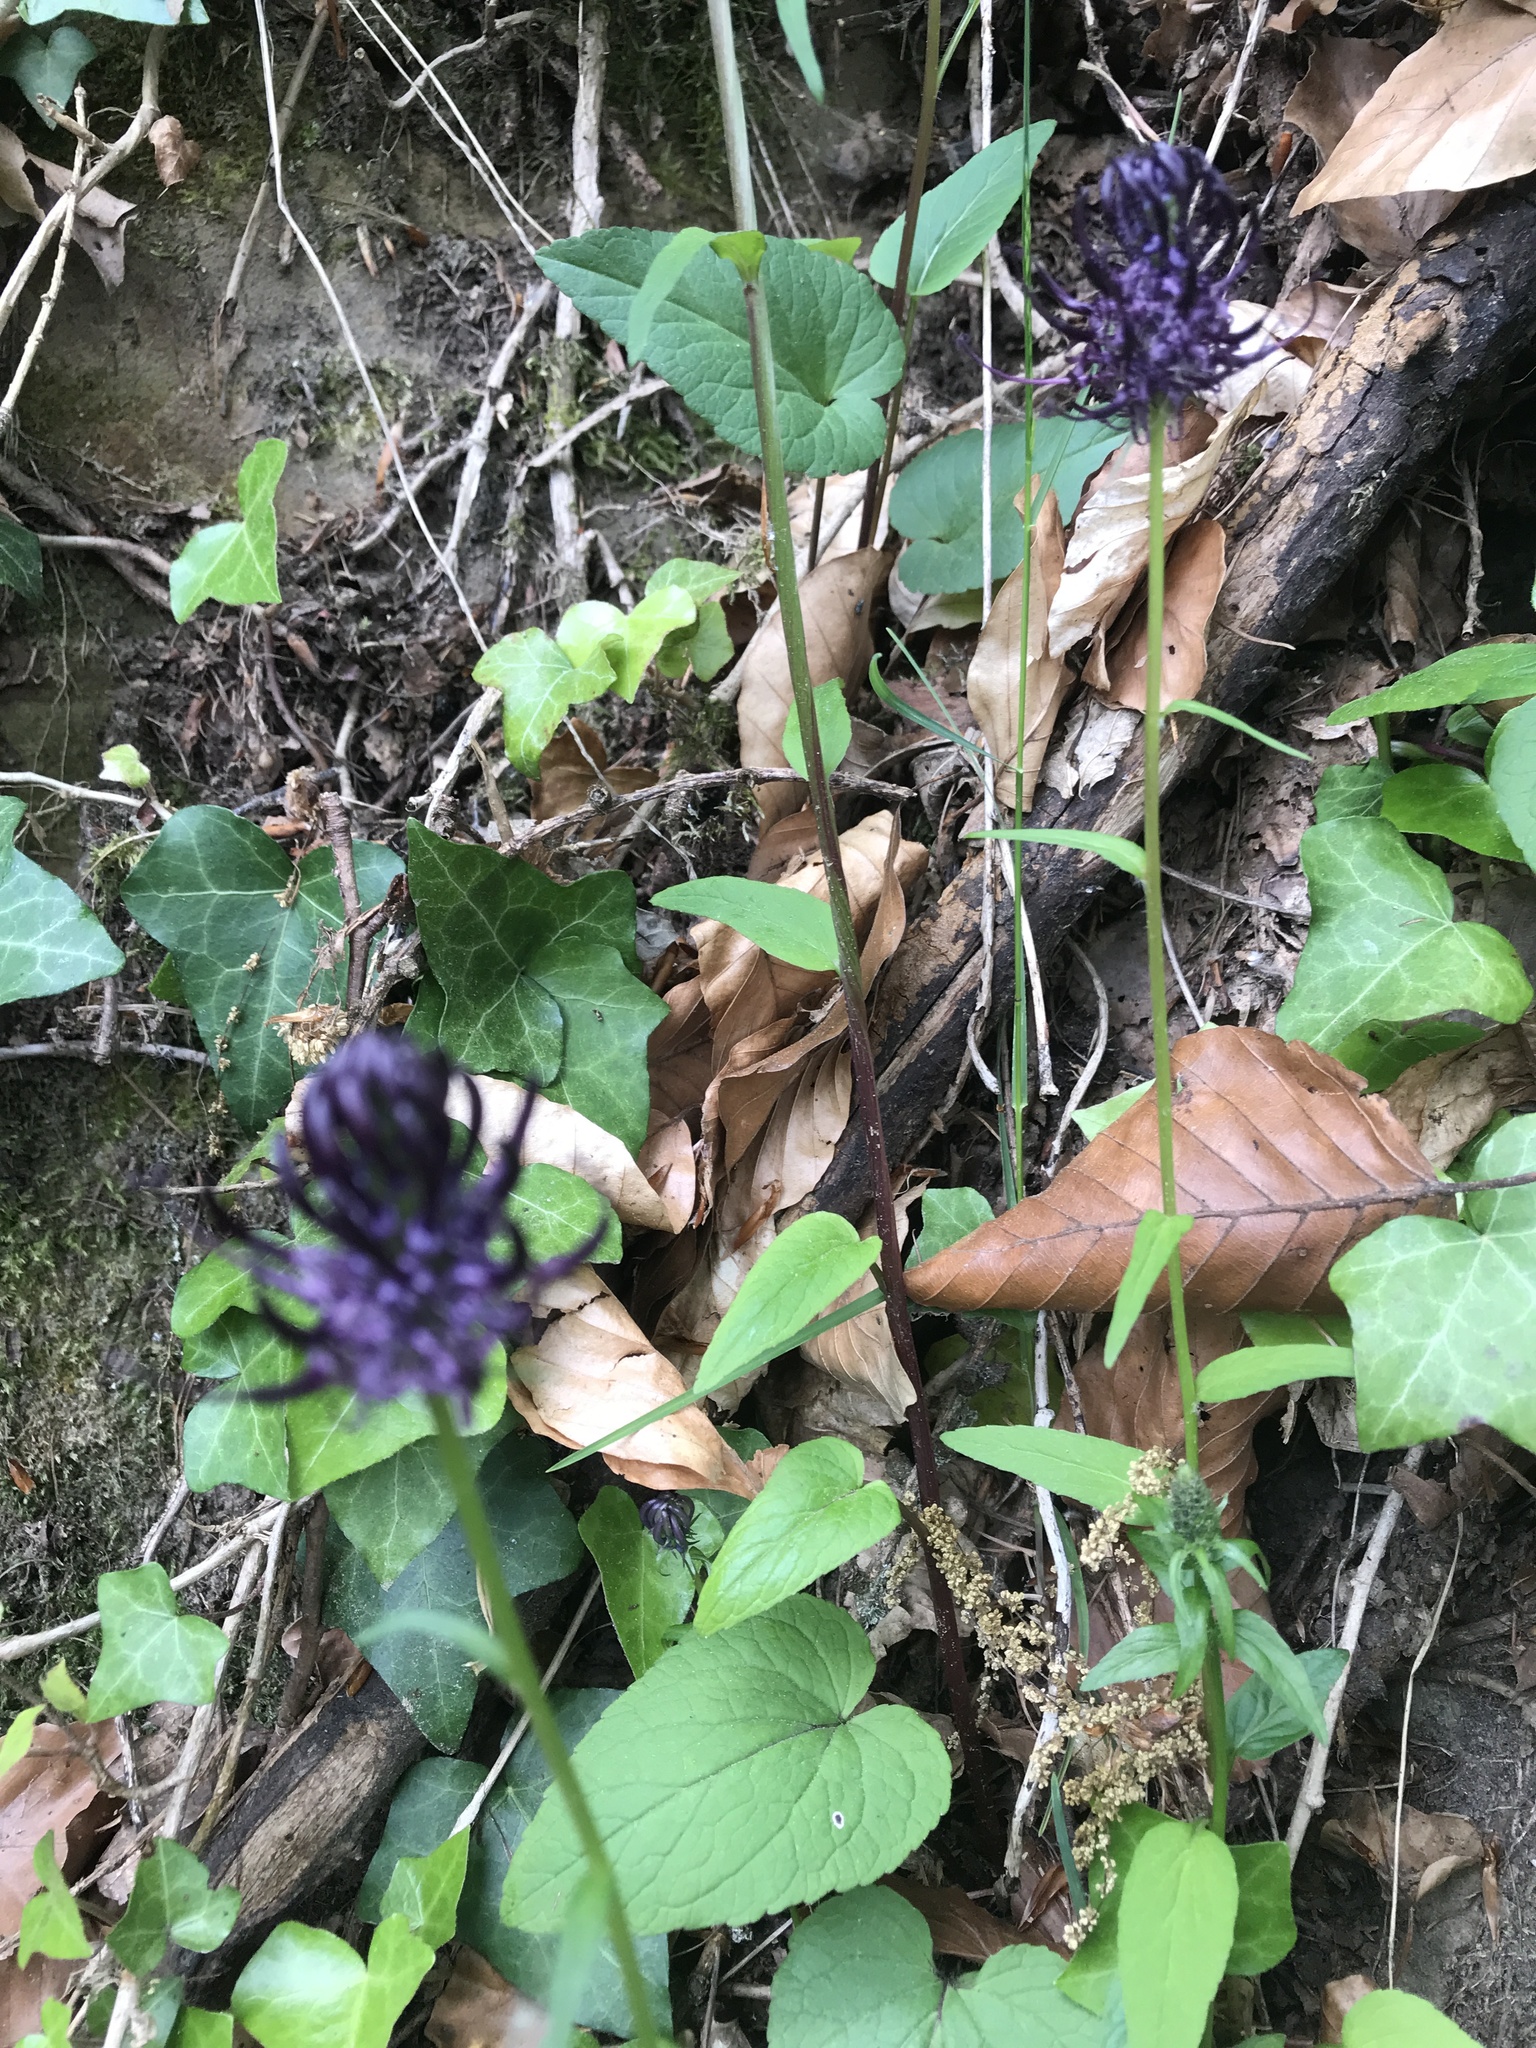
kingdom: Plantae
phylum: Tracheophyta
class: Magnoliopsida
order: Asterales
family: Campanulaceae
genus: Phyteuma
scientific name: Phyteuma nigrum
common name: Black rampion
